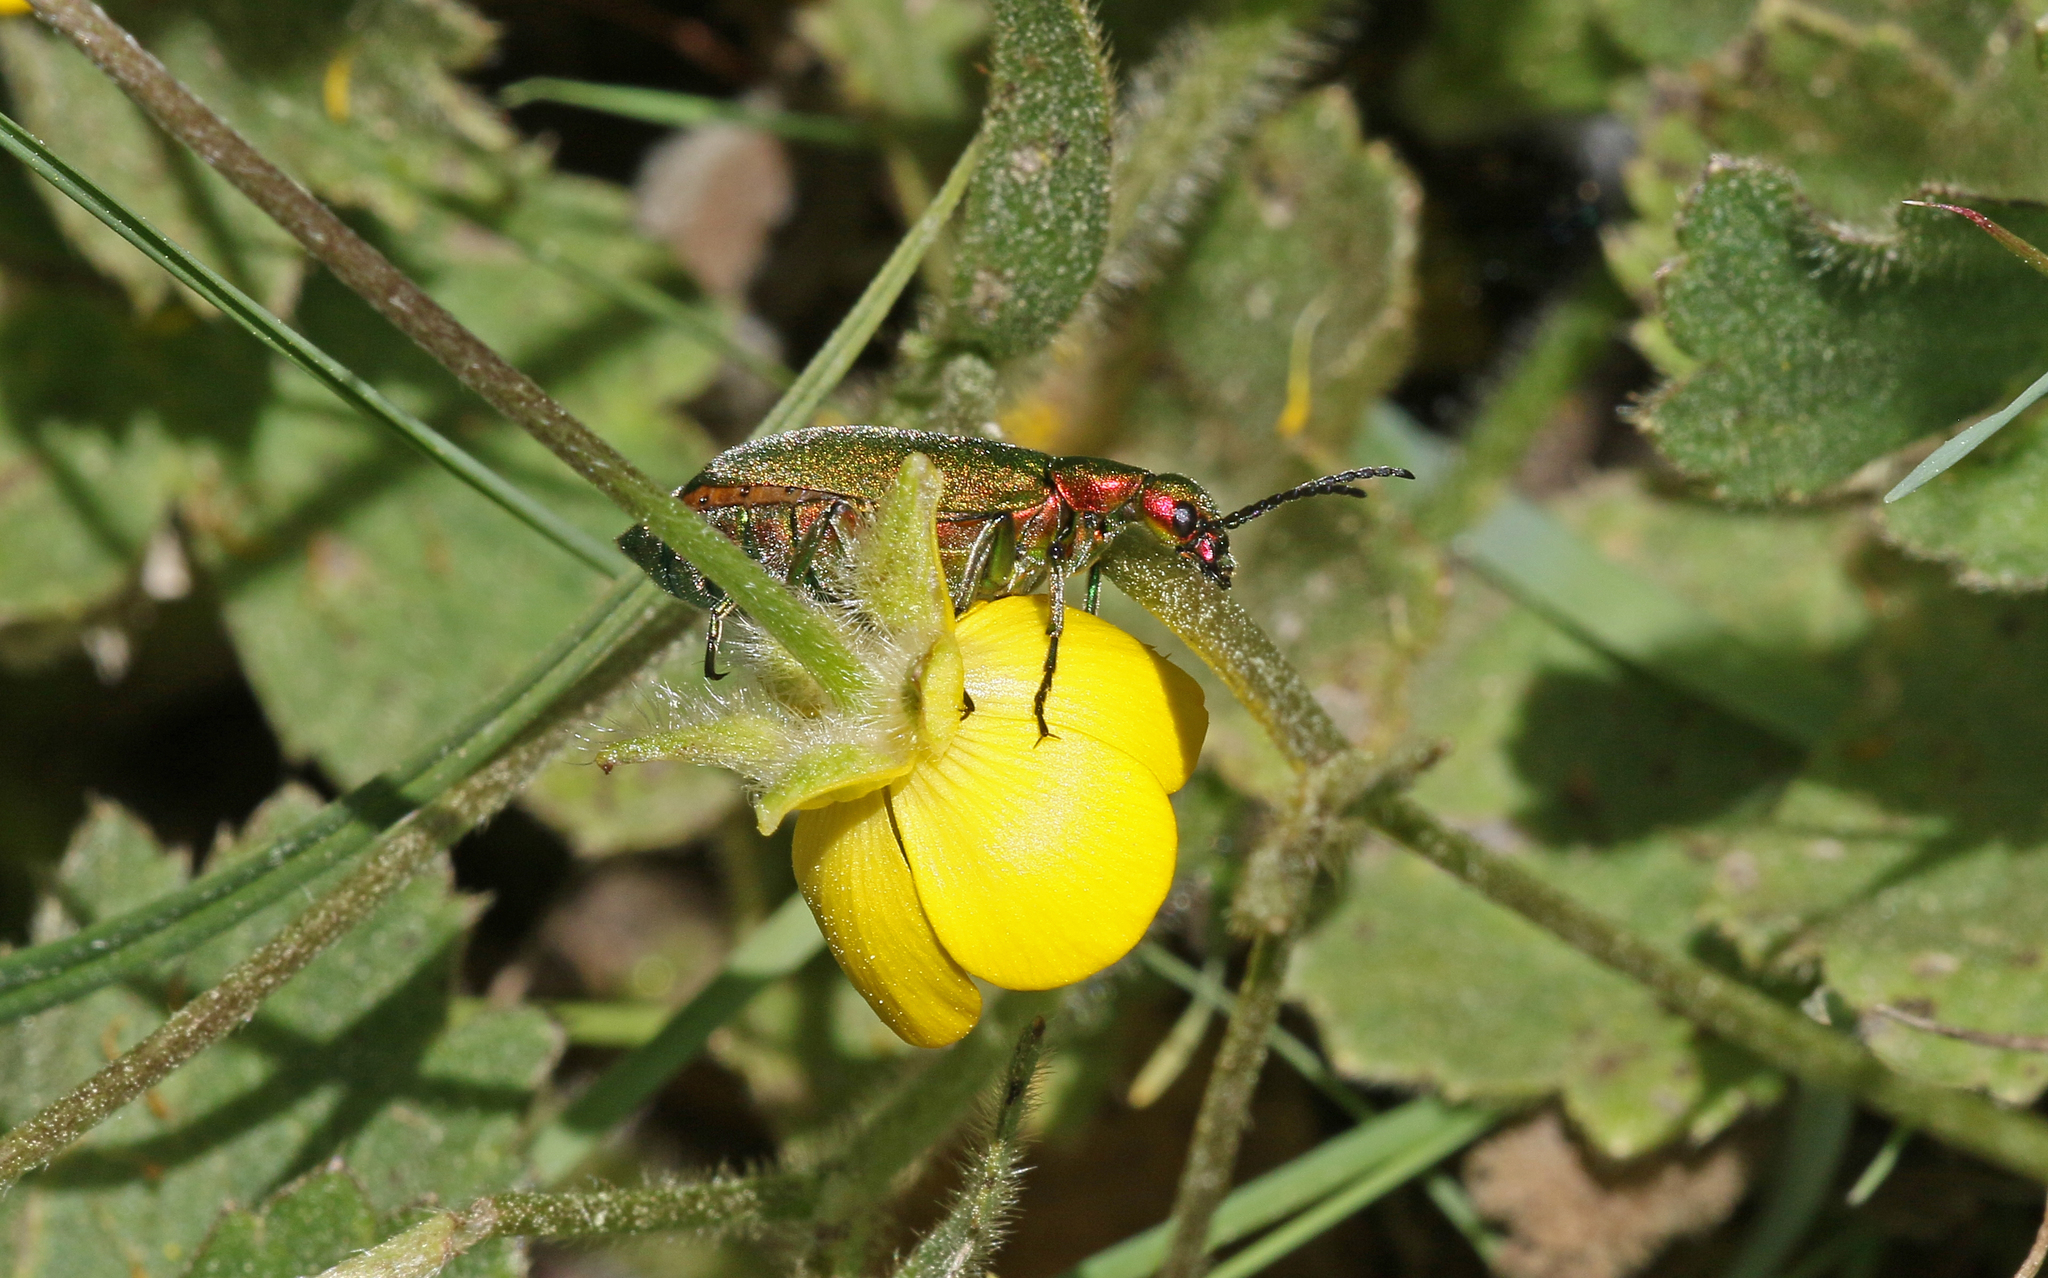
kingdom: Animalia
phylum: Arthropoda
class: Insecta
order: Coleoptera
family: Meloidae
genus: Lagorina
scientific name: Lagorina sericea
